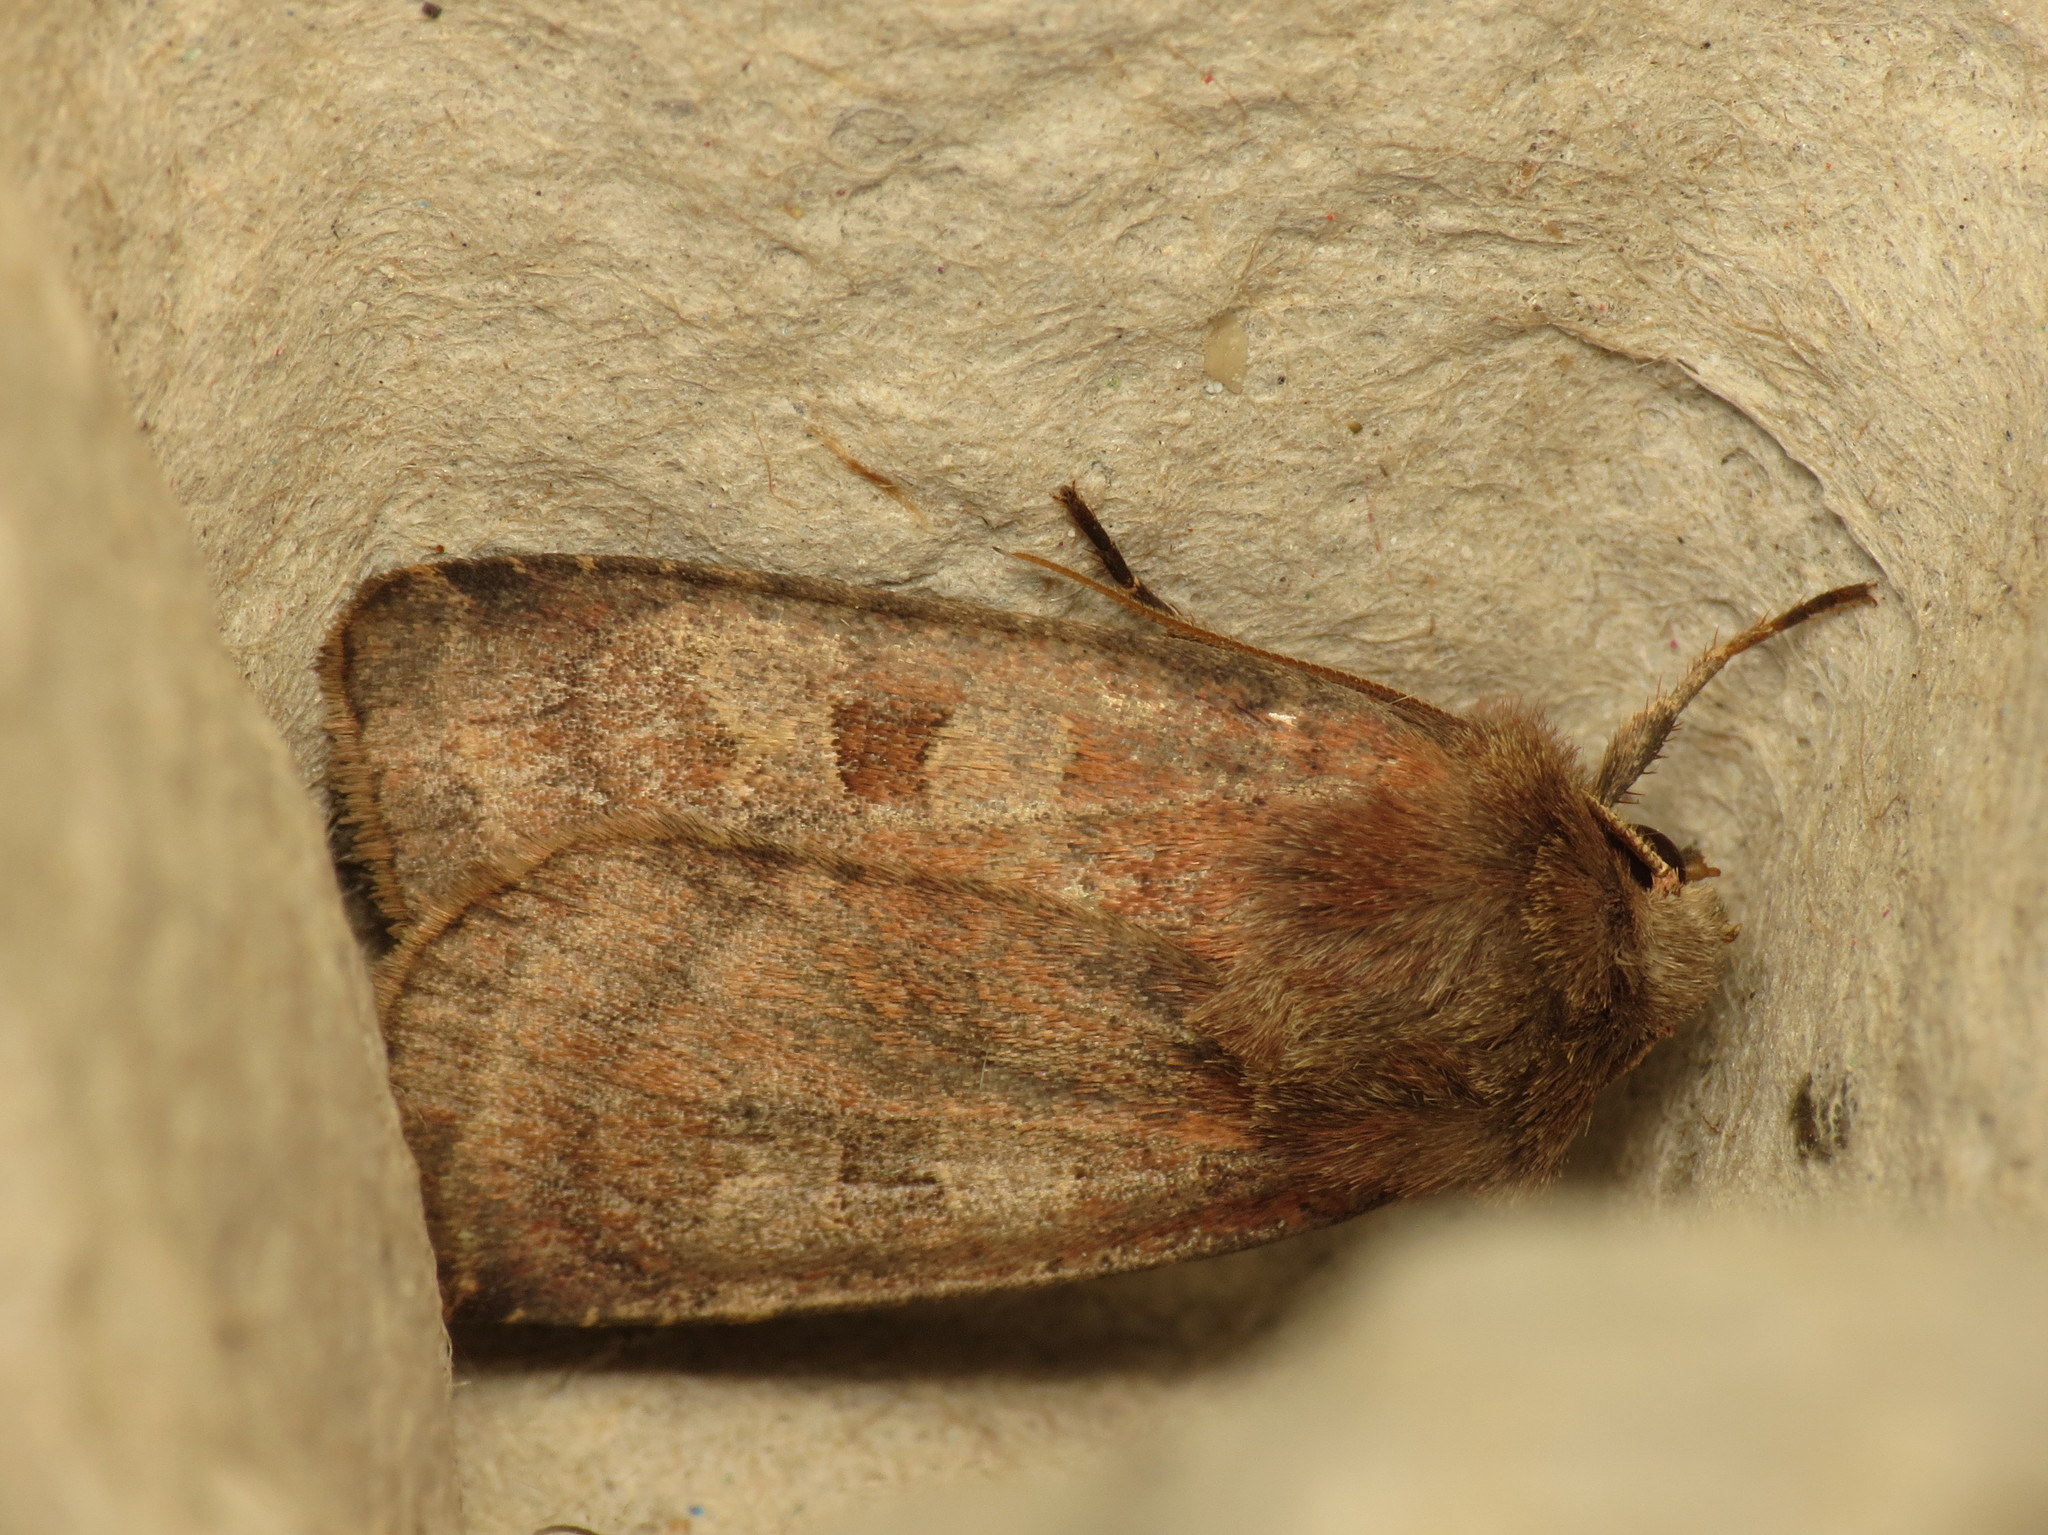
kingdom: Animalia
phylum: Arthropoda
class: Insecta
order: Lepidoptera
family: Noctuidae
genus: Diarsia
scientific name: Diarsia rubi
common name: Small square-spot
